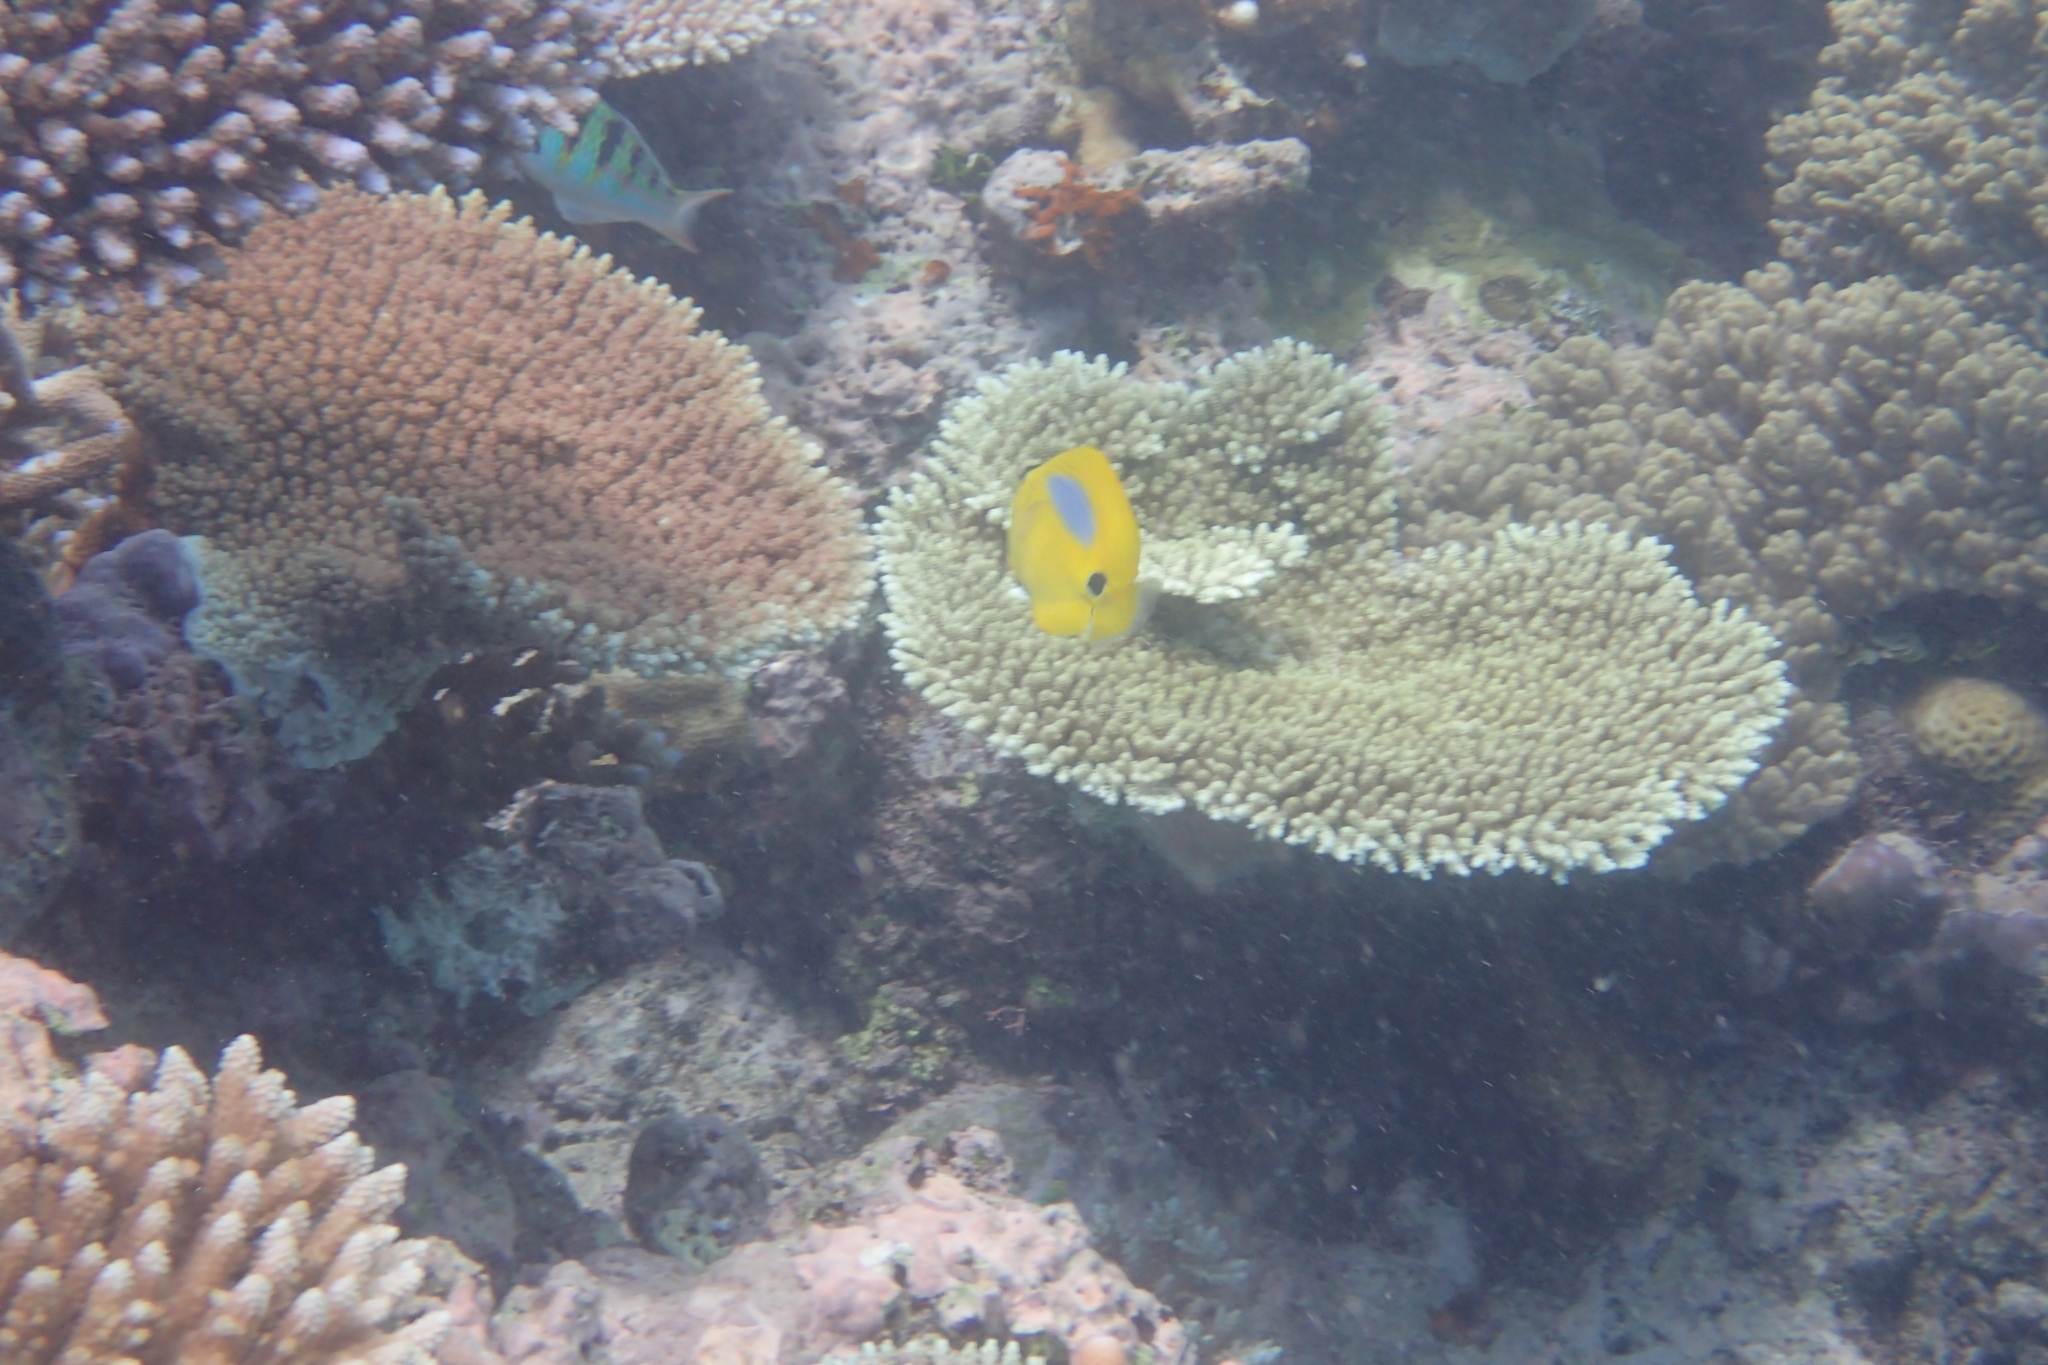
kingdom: Animalia
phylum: Chordata
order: Perciformes
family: Chaetodontidae
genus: Chaetodon
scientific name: Chaetodon plebeius
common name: Bluespot butterflyfish
